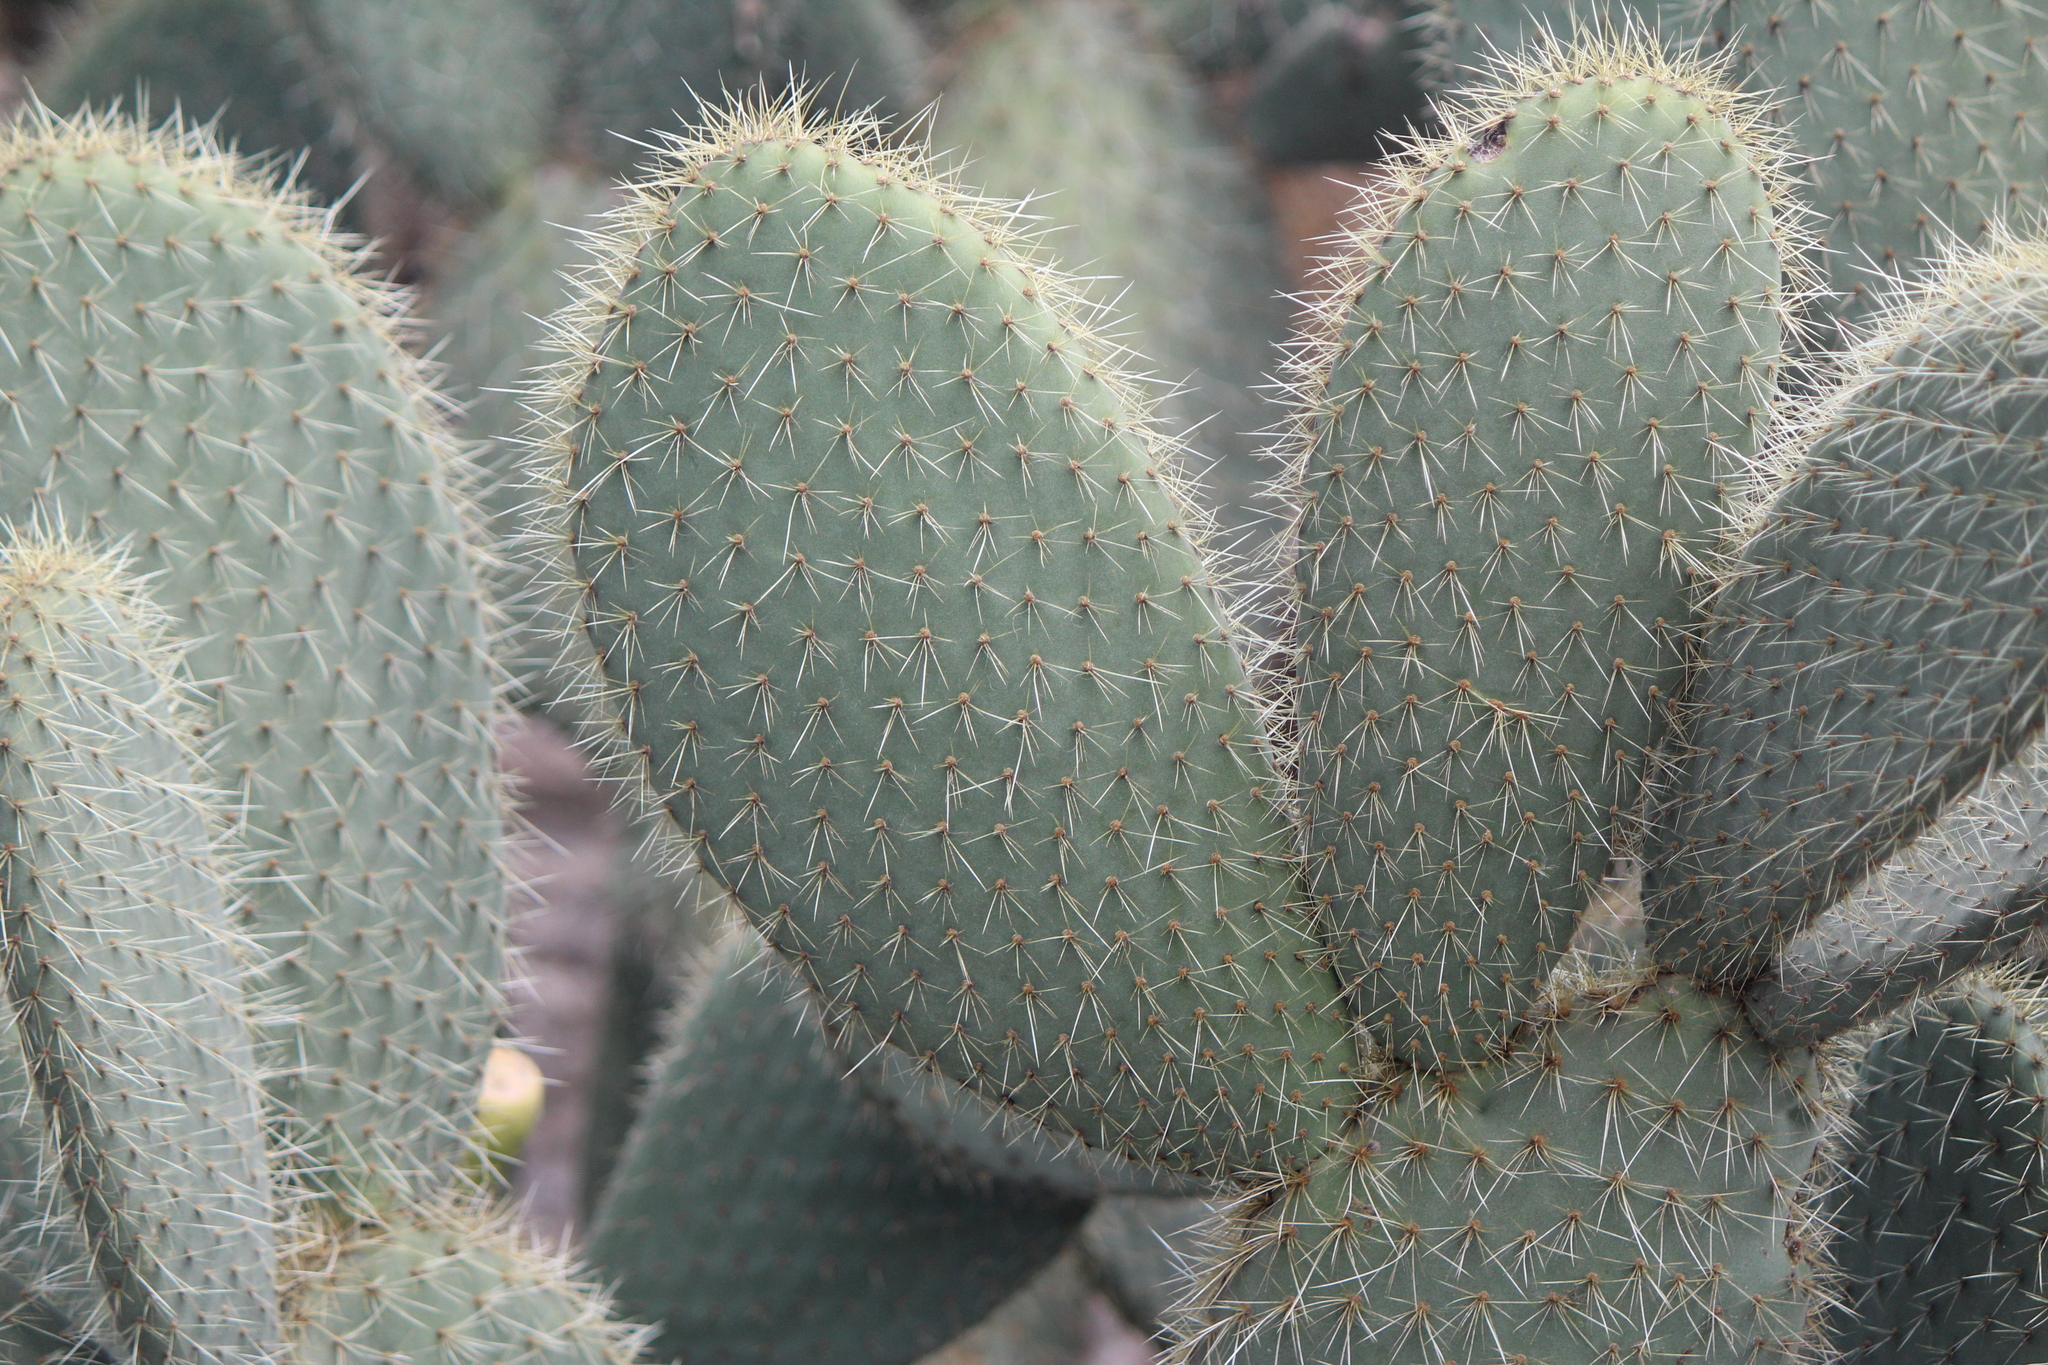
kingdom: Plantae
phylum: Tracheophyta
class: Magnoliopsida
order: Caryophyllales
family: Cactaceae
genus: Opuntia
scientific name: Opuntia leucotricha
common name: Arborescent pricklypear
